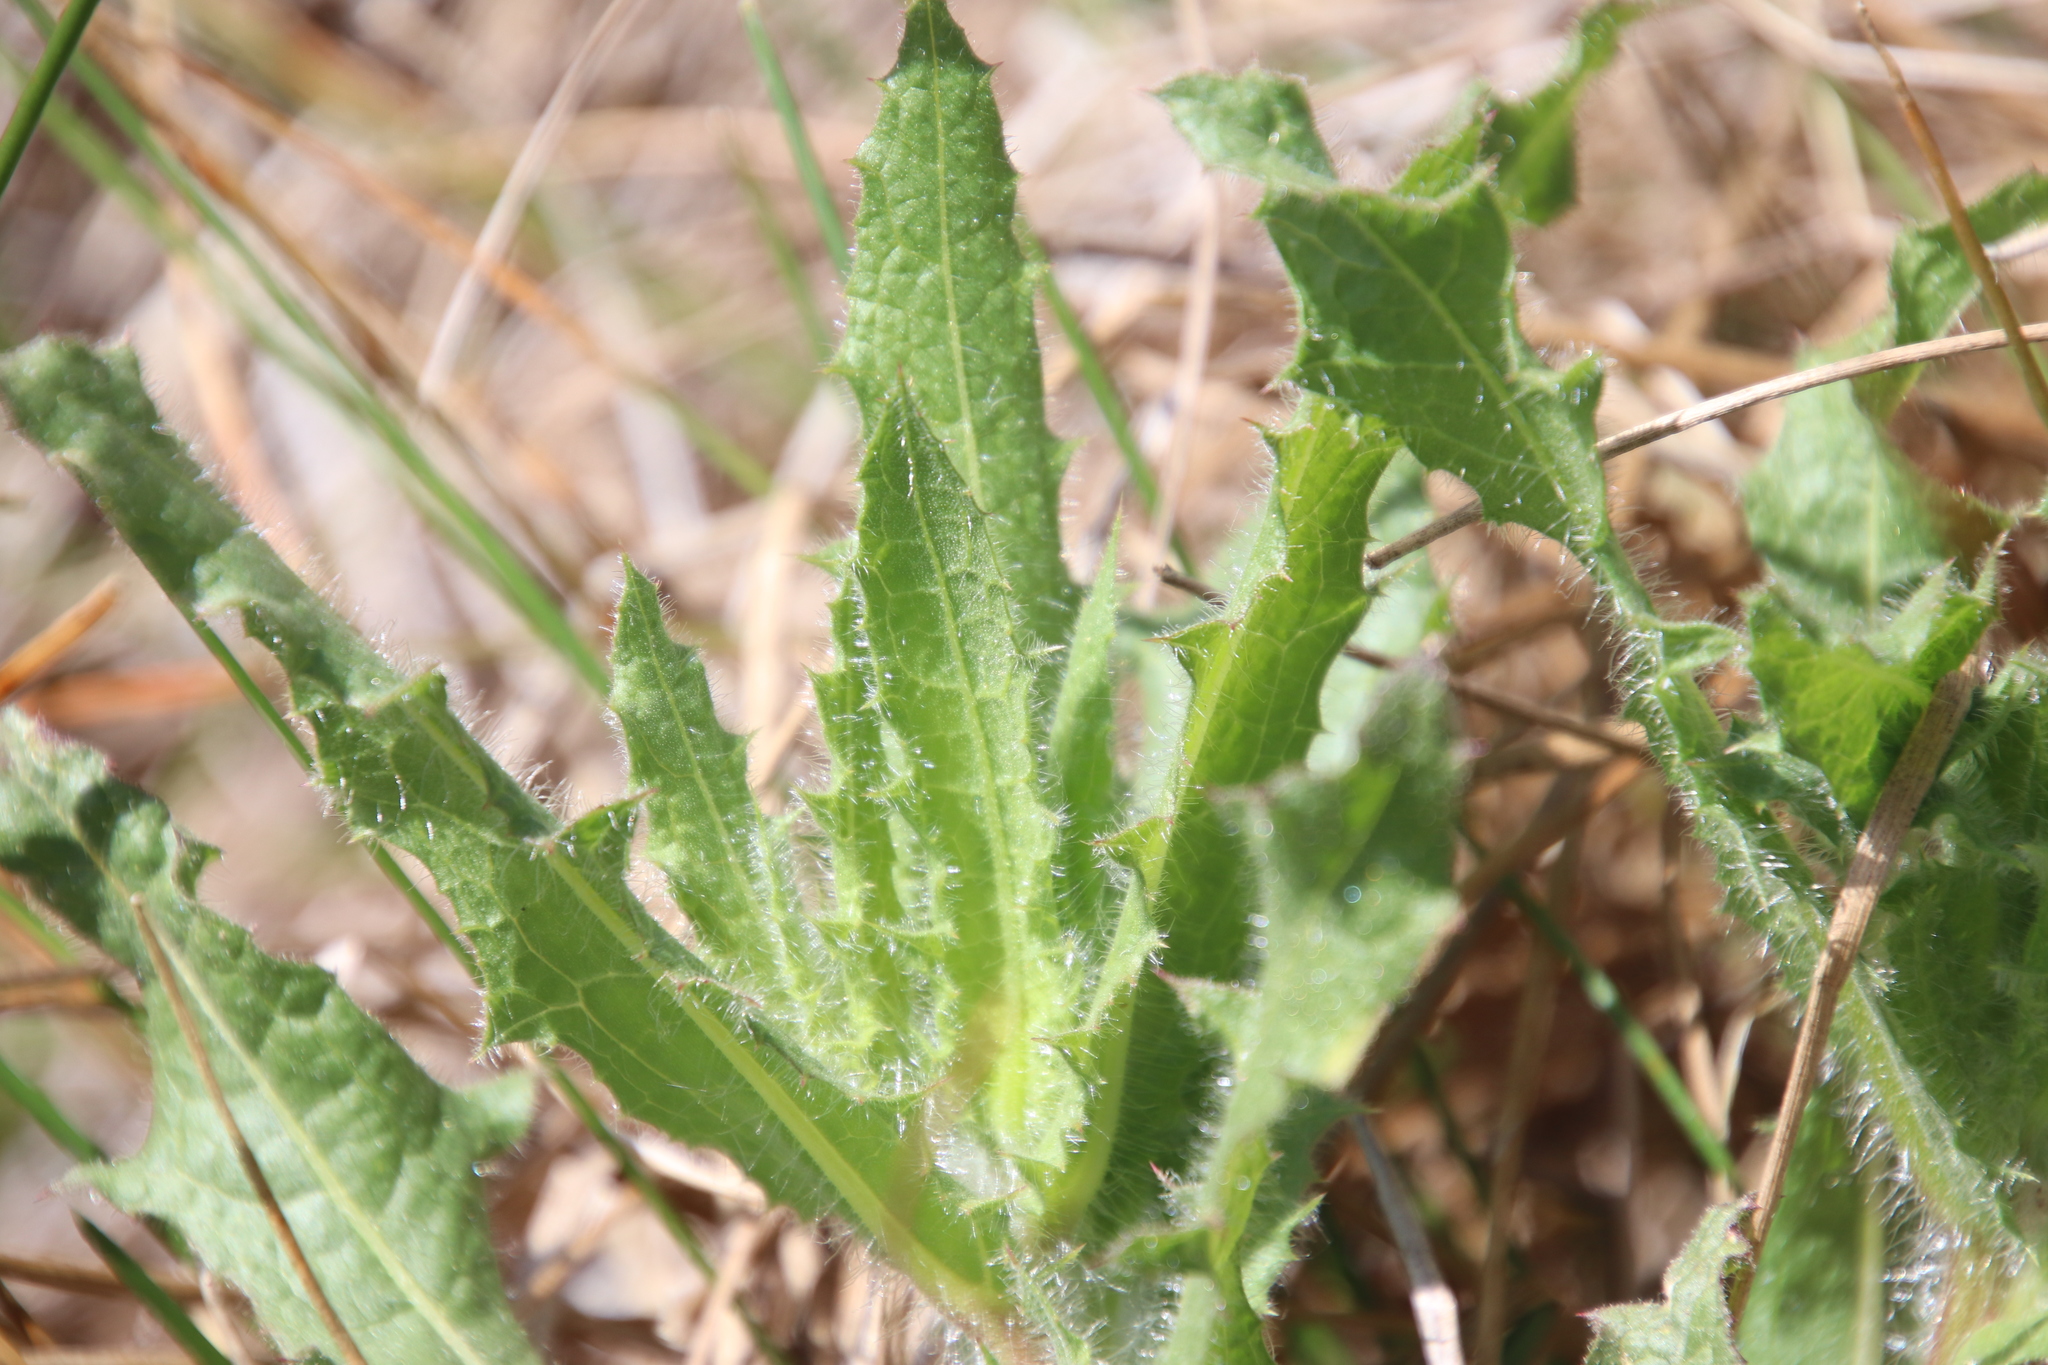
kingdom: Plantae
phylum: Tracheophyta
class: Magnoliopsida
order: Asterales
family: Asteraceae
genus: Centaurea
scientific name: Centaurea benedicta
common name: Blessed thistle
